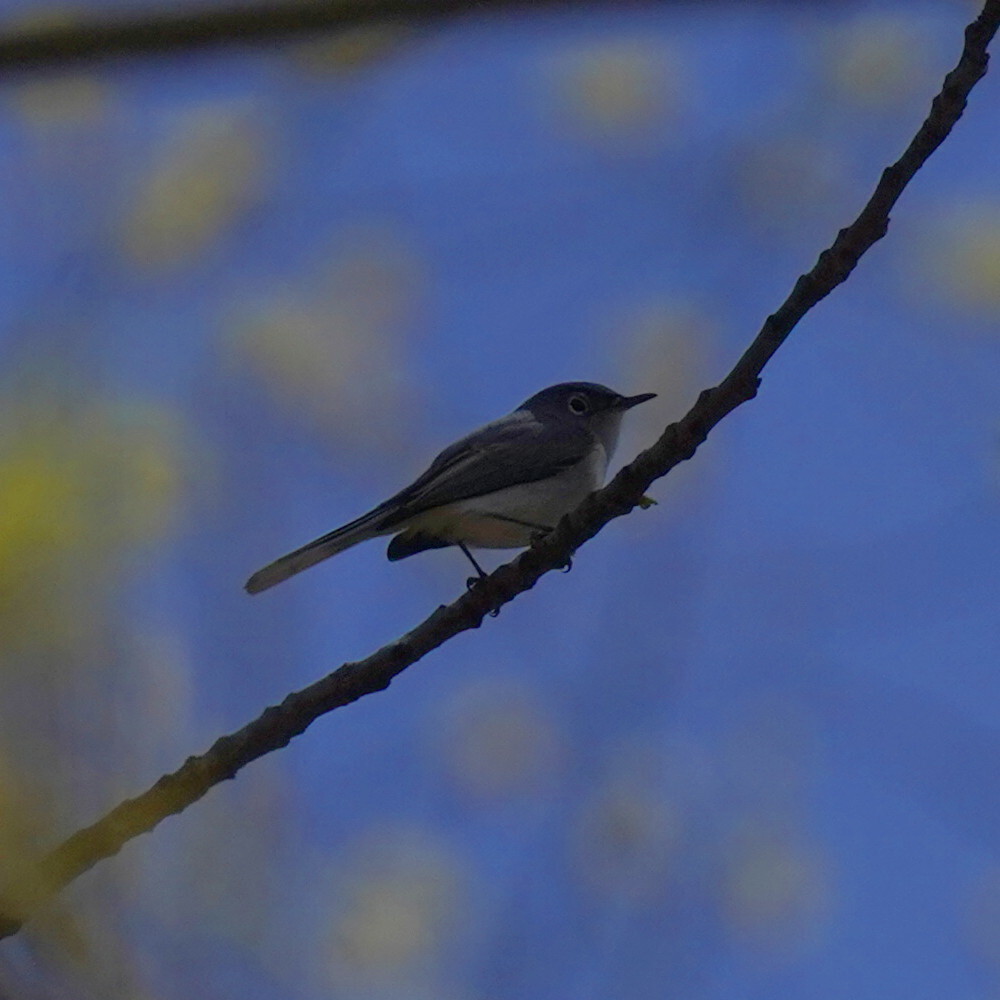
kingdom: Animalia
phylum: Chordata
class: Aves
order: Passeriformes
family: Polioptilidae
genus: Polioptila
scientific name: Polioptila caerulea
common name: Blue-gray gnatcatcher
